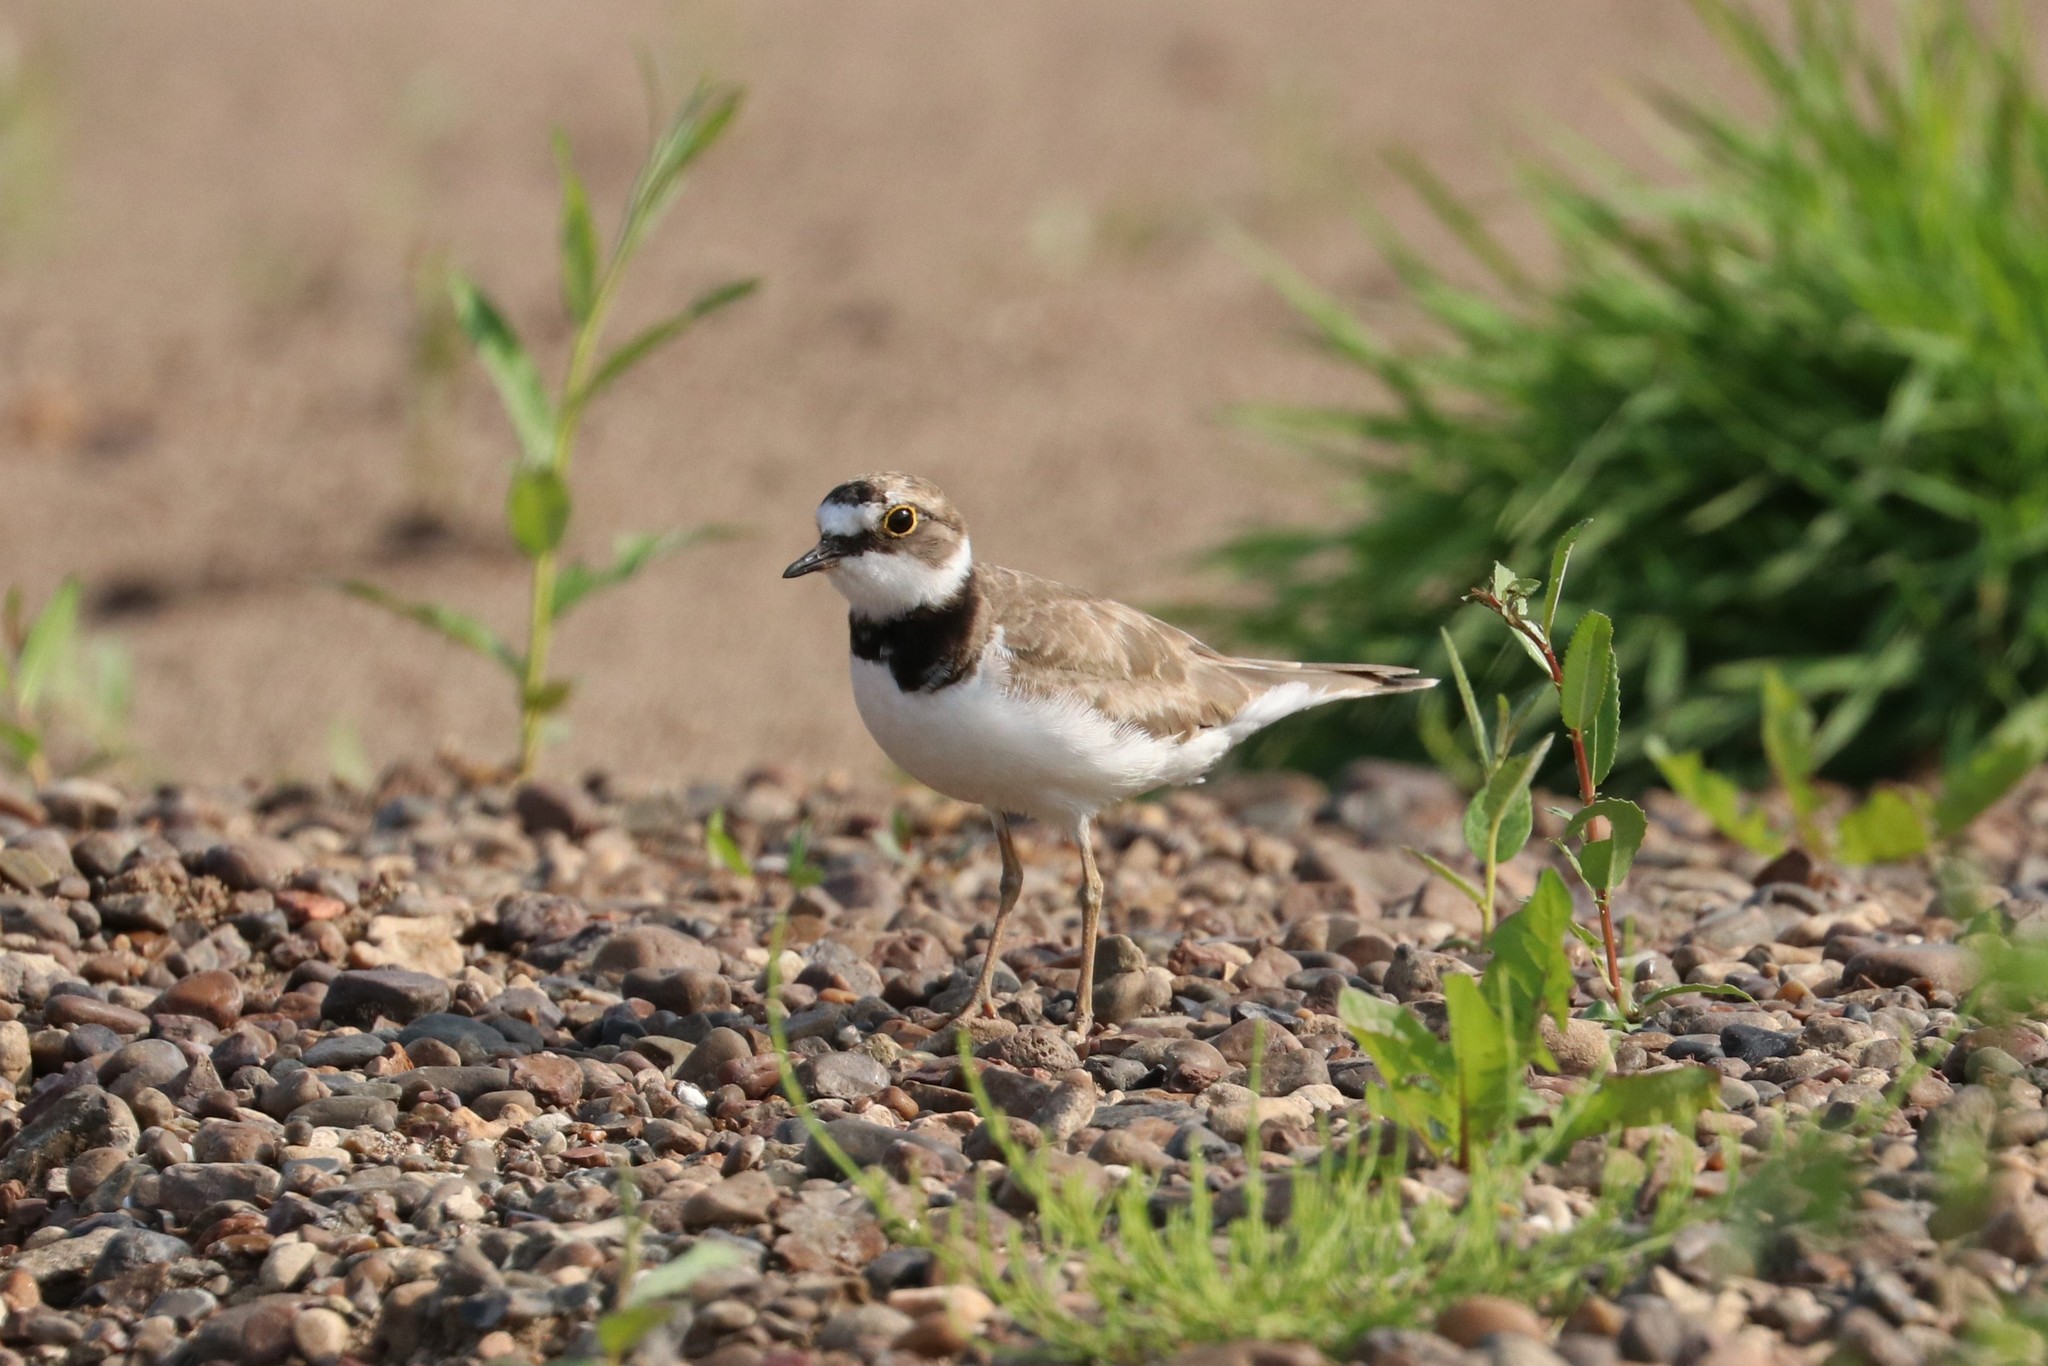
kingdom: Animalia
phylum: Chordata
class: Aves
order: Charadriiformes
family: Charadriidae
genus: Charadrius
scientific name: Charadrius dubius
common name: Little ringed plover
